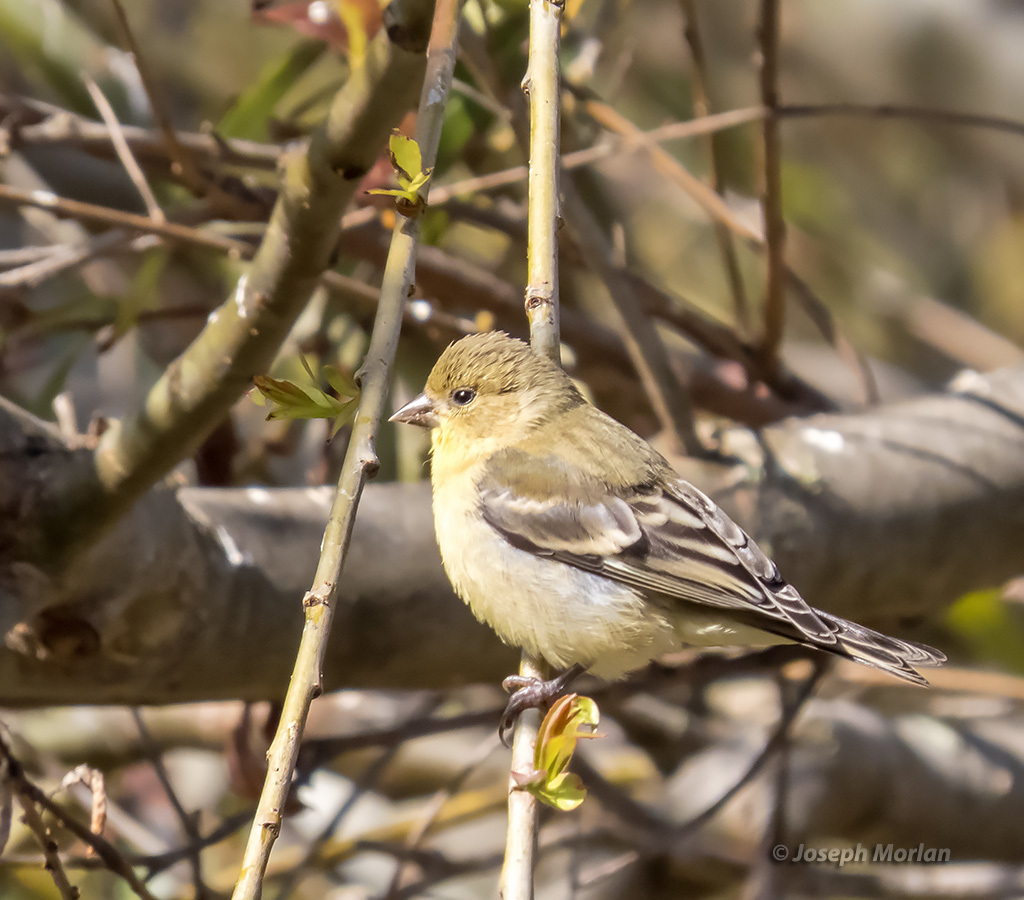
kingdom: Animalia
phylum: Chordata
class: Aves
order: Passeriformes
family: Fringillidae
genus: Spinus
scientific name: Spinus psaltria
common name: Lesser goldfinch
